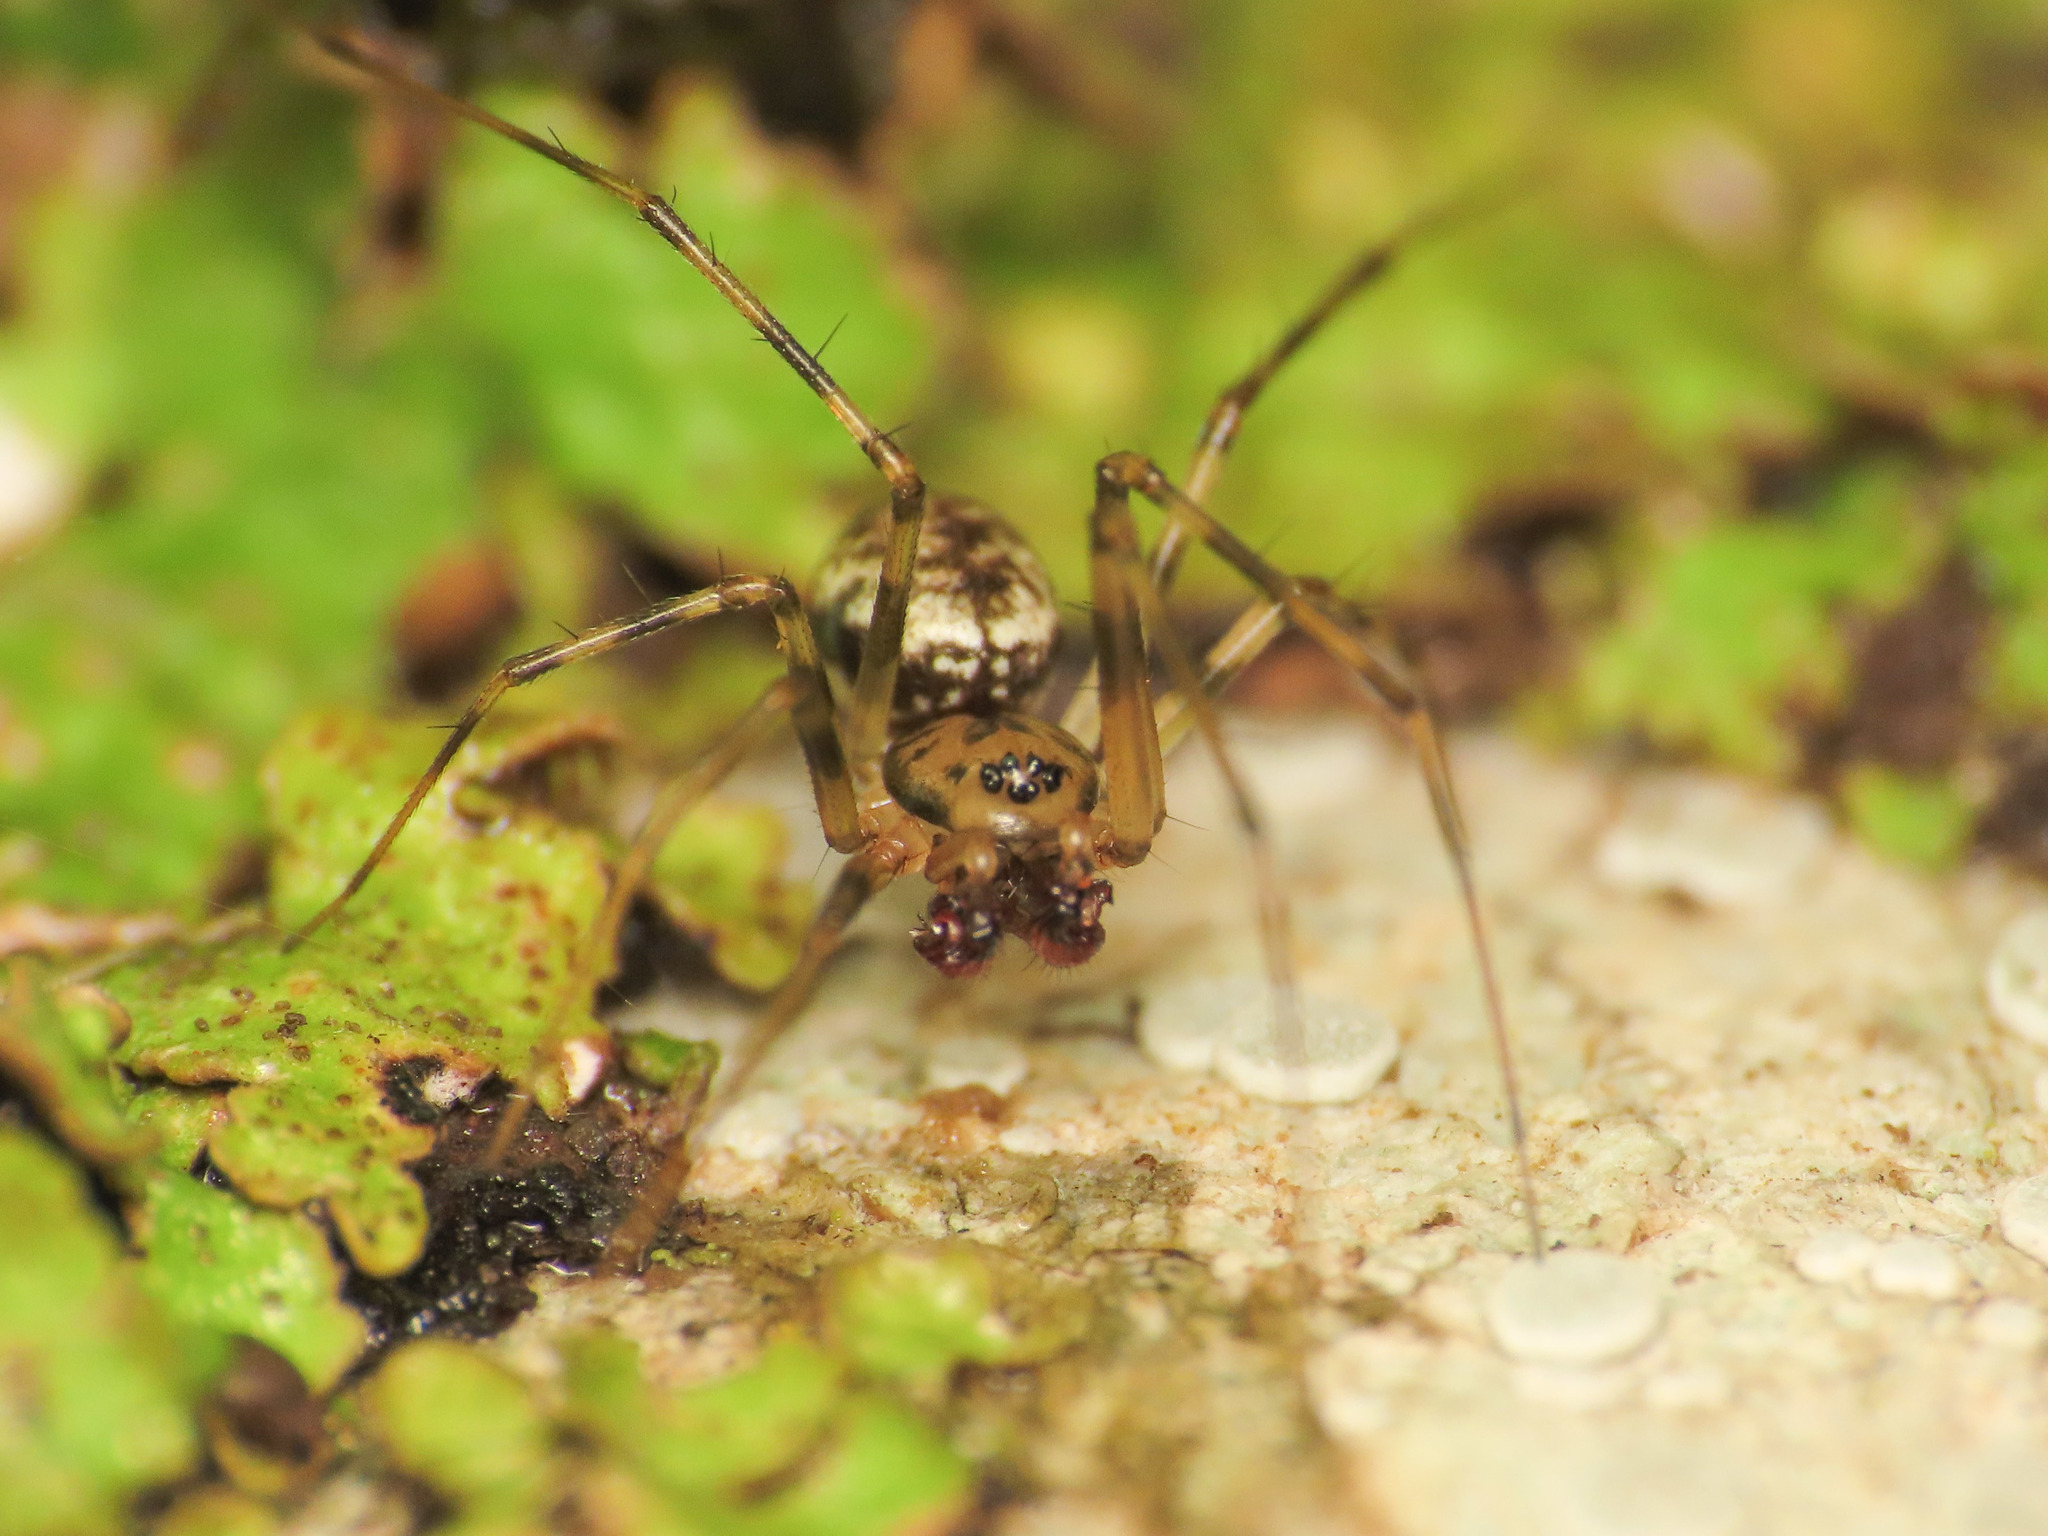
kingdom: Animalia
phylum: Arthropoda
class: Arachnida
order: Araneae
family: Linyphiidae
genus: Drapetisca
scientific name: Drapetisca socialis
